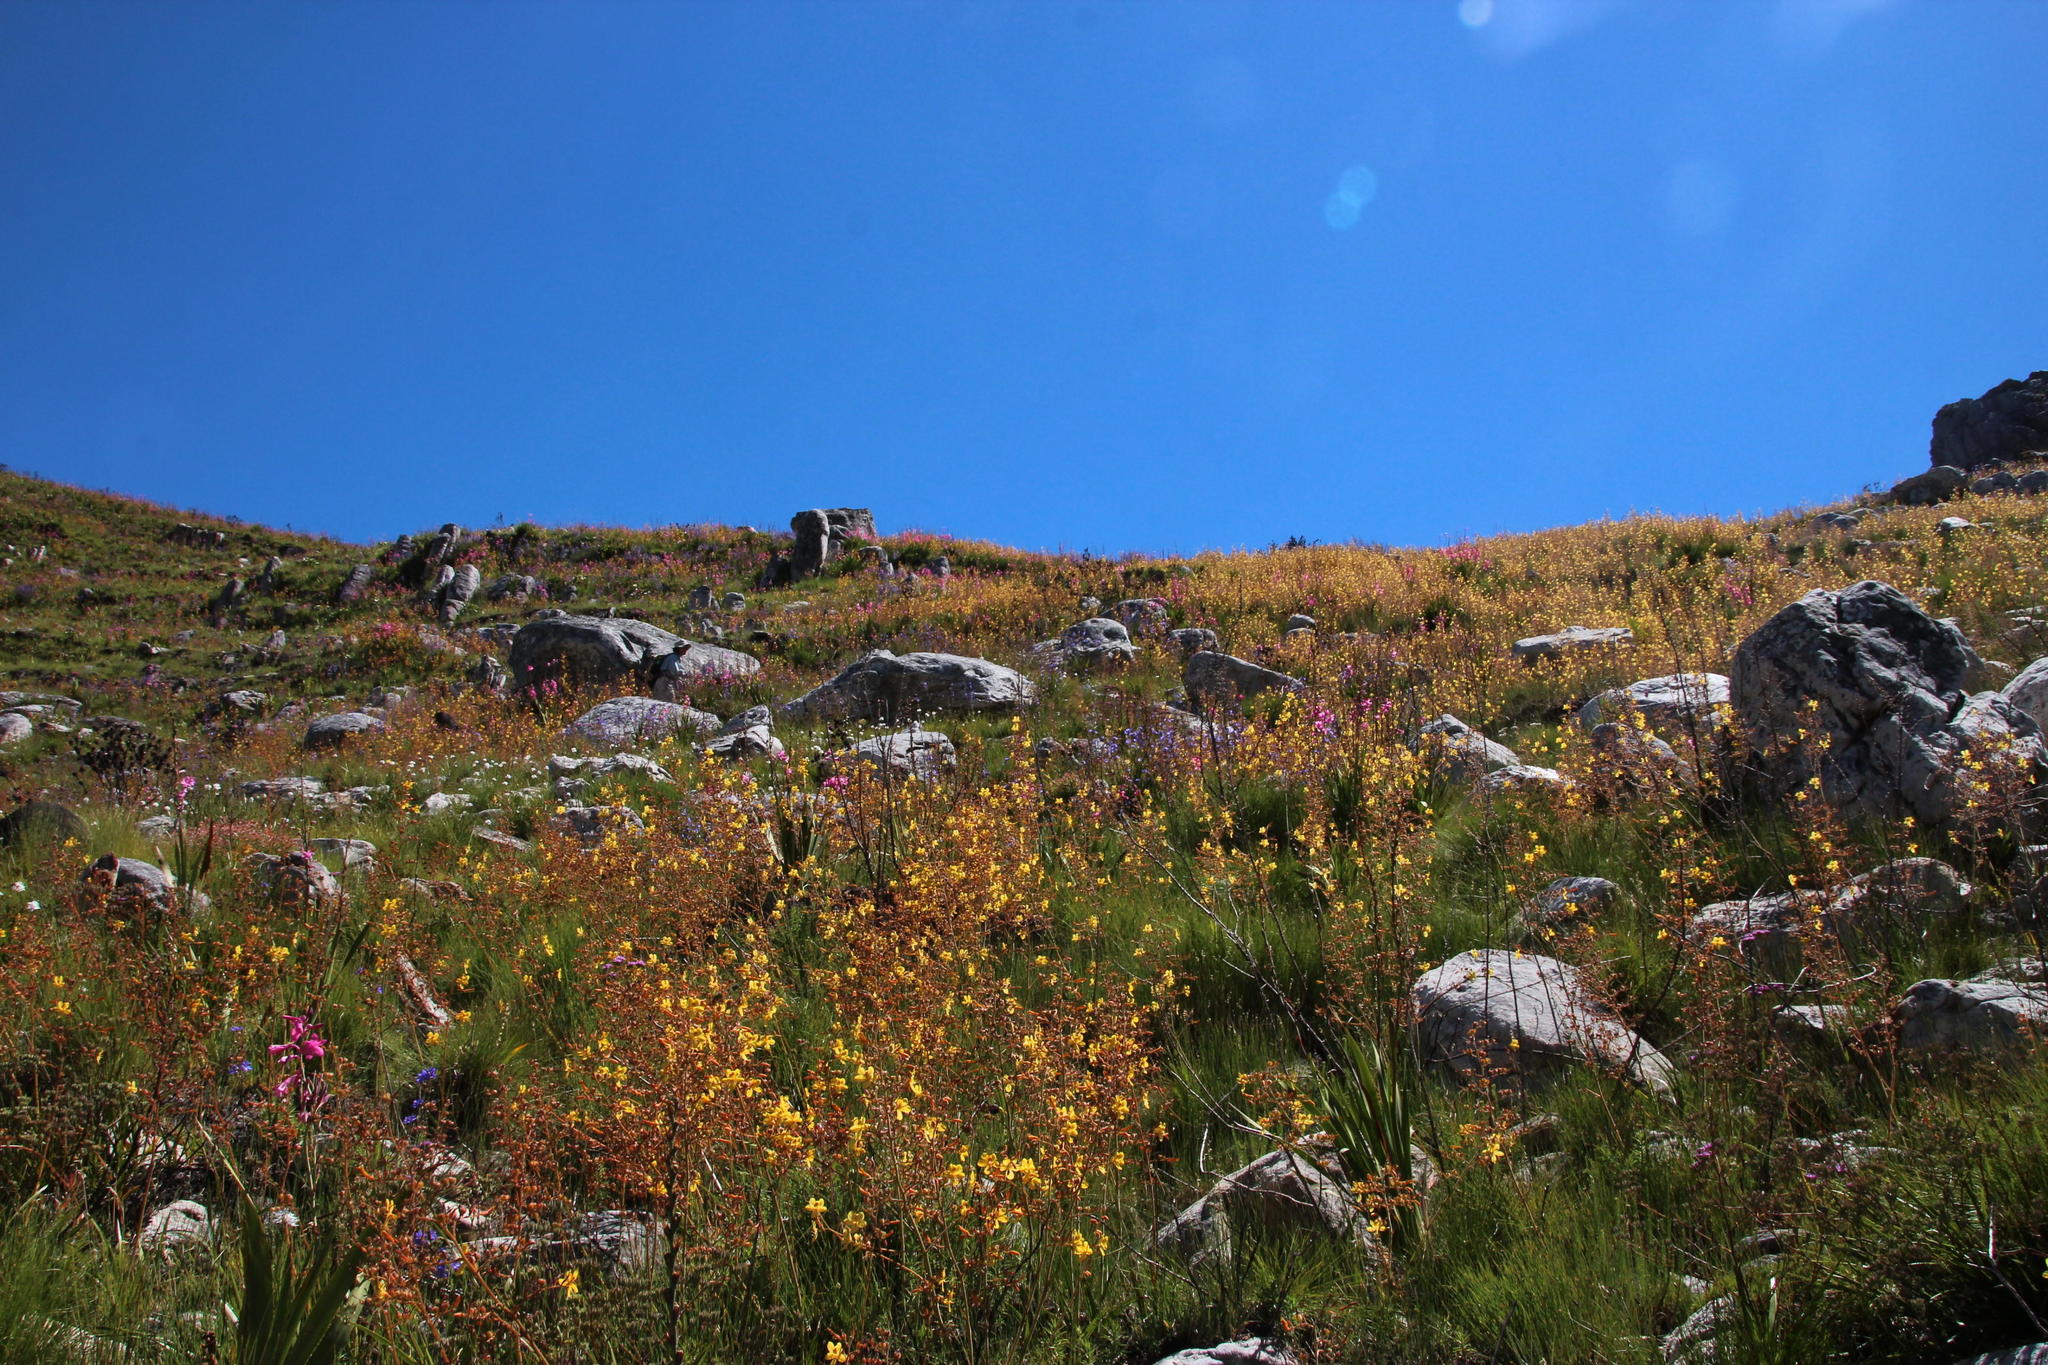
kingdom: Plantae
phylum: Tracheophyta
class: Liliopsida
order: Commelinales
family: Haemodoraceae
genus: Wachendorfia
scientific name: Wachendorfia paniculata
